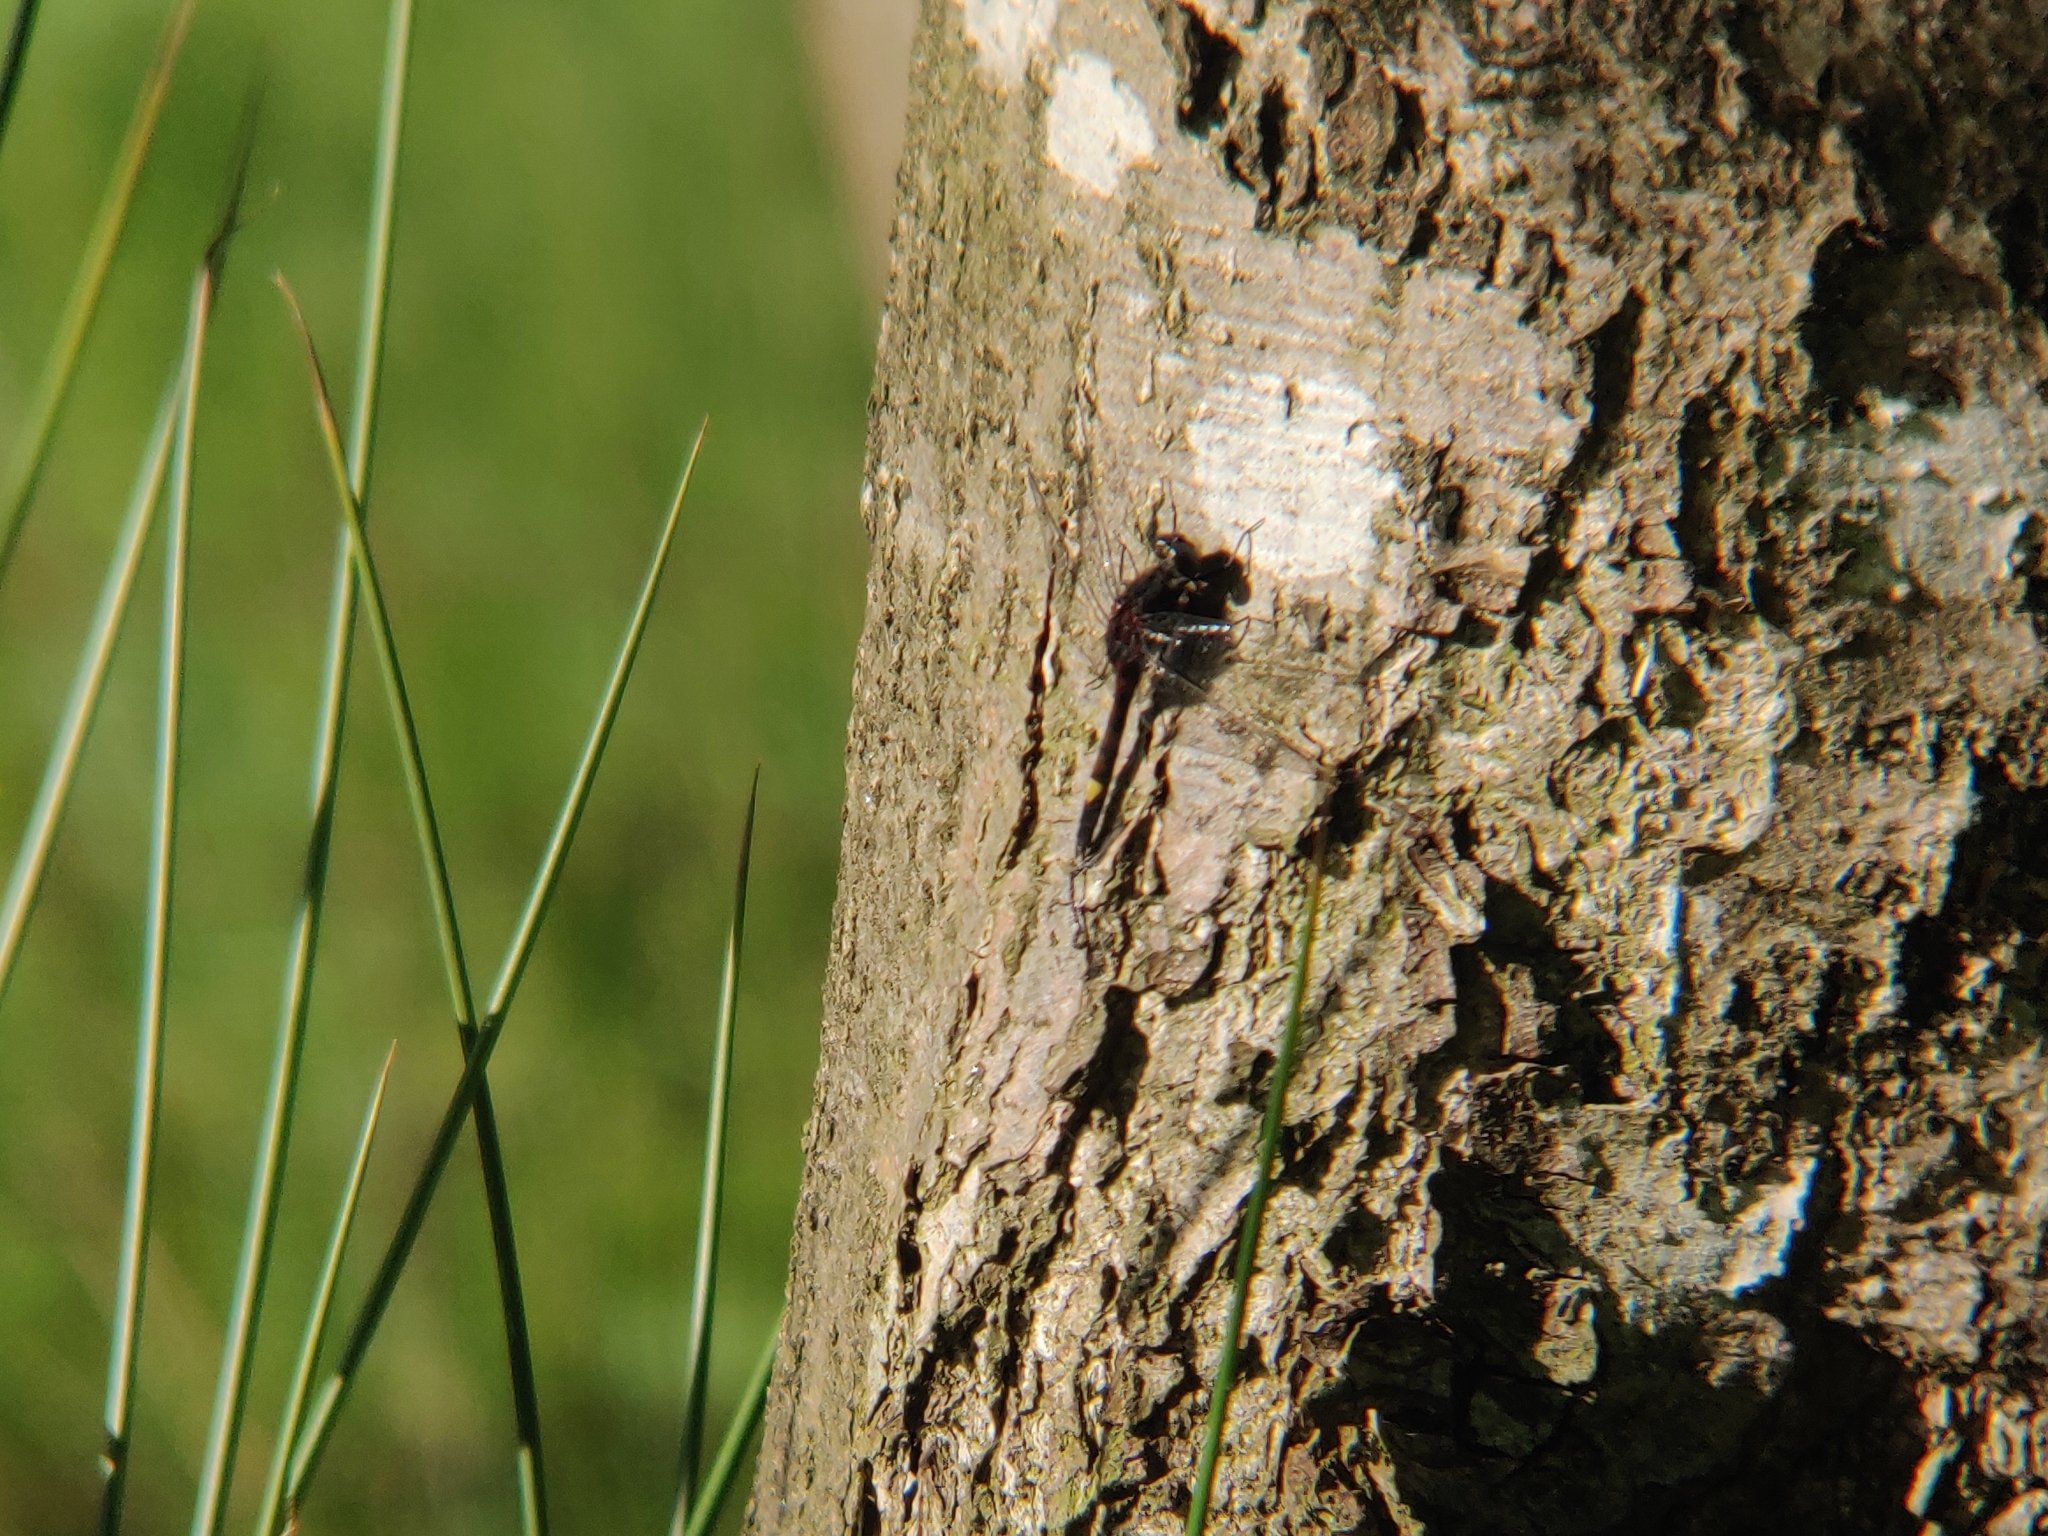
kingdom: Animalia
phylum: Arthropoda
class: Insecta
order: Odonata
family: Libellulidae
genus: Leucorrhinia
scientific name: Leucorrhinia pectoralis
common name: Yellow-spotted whiteface
